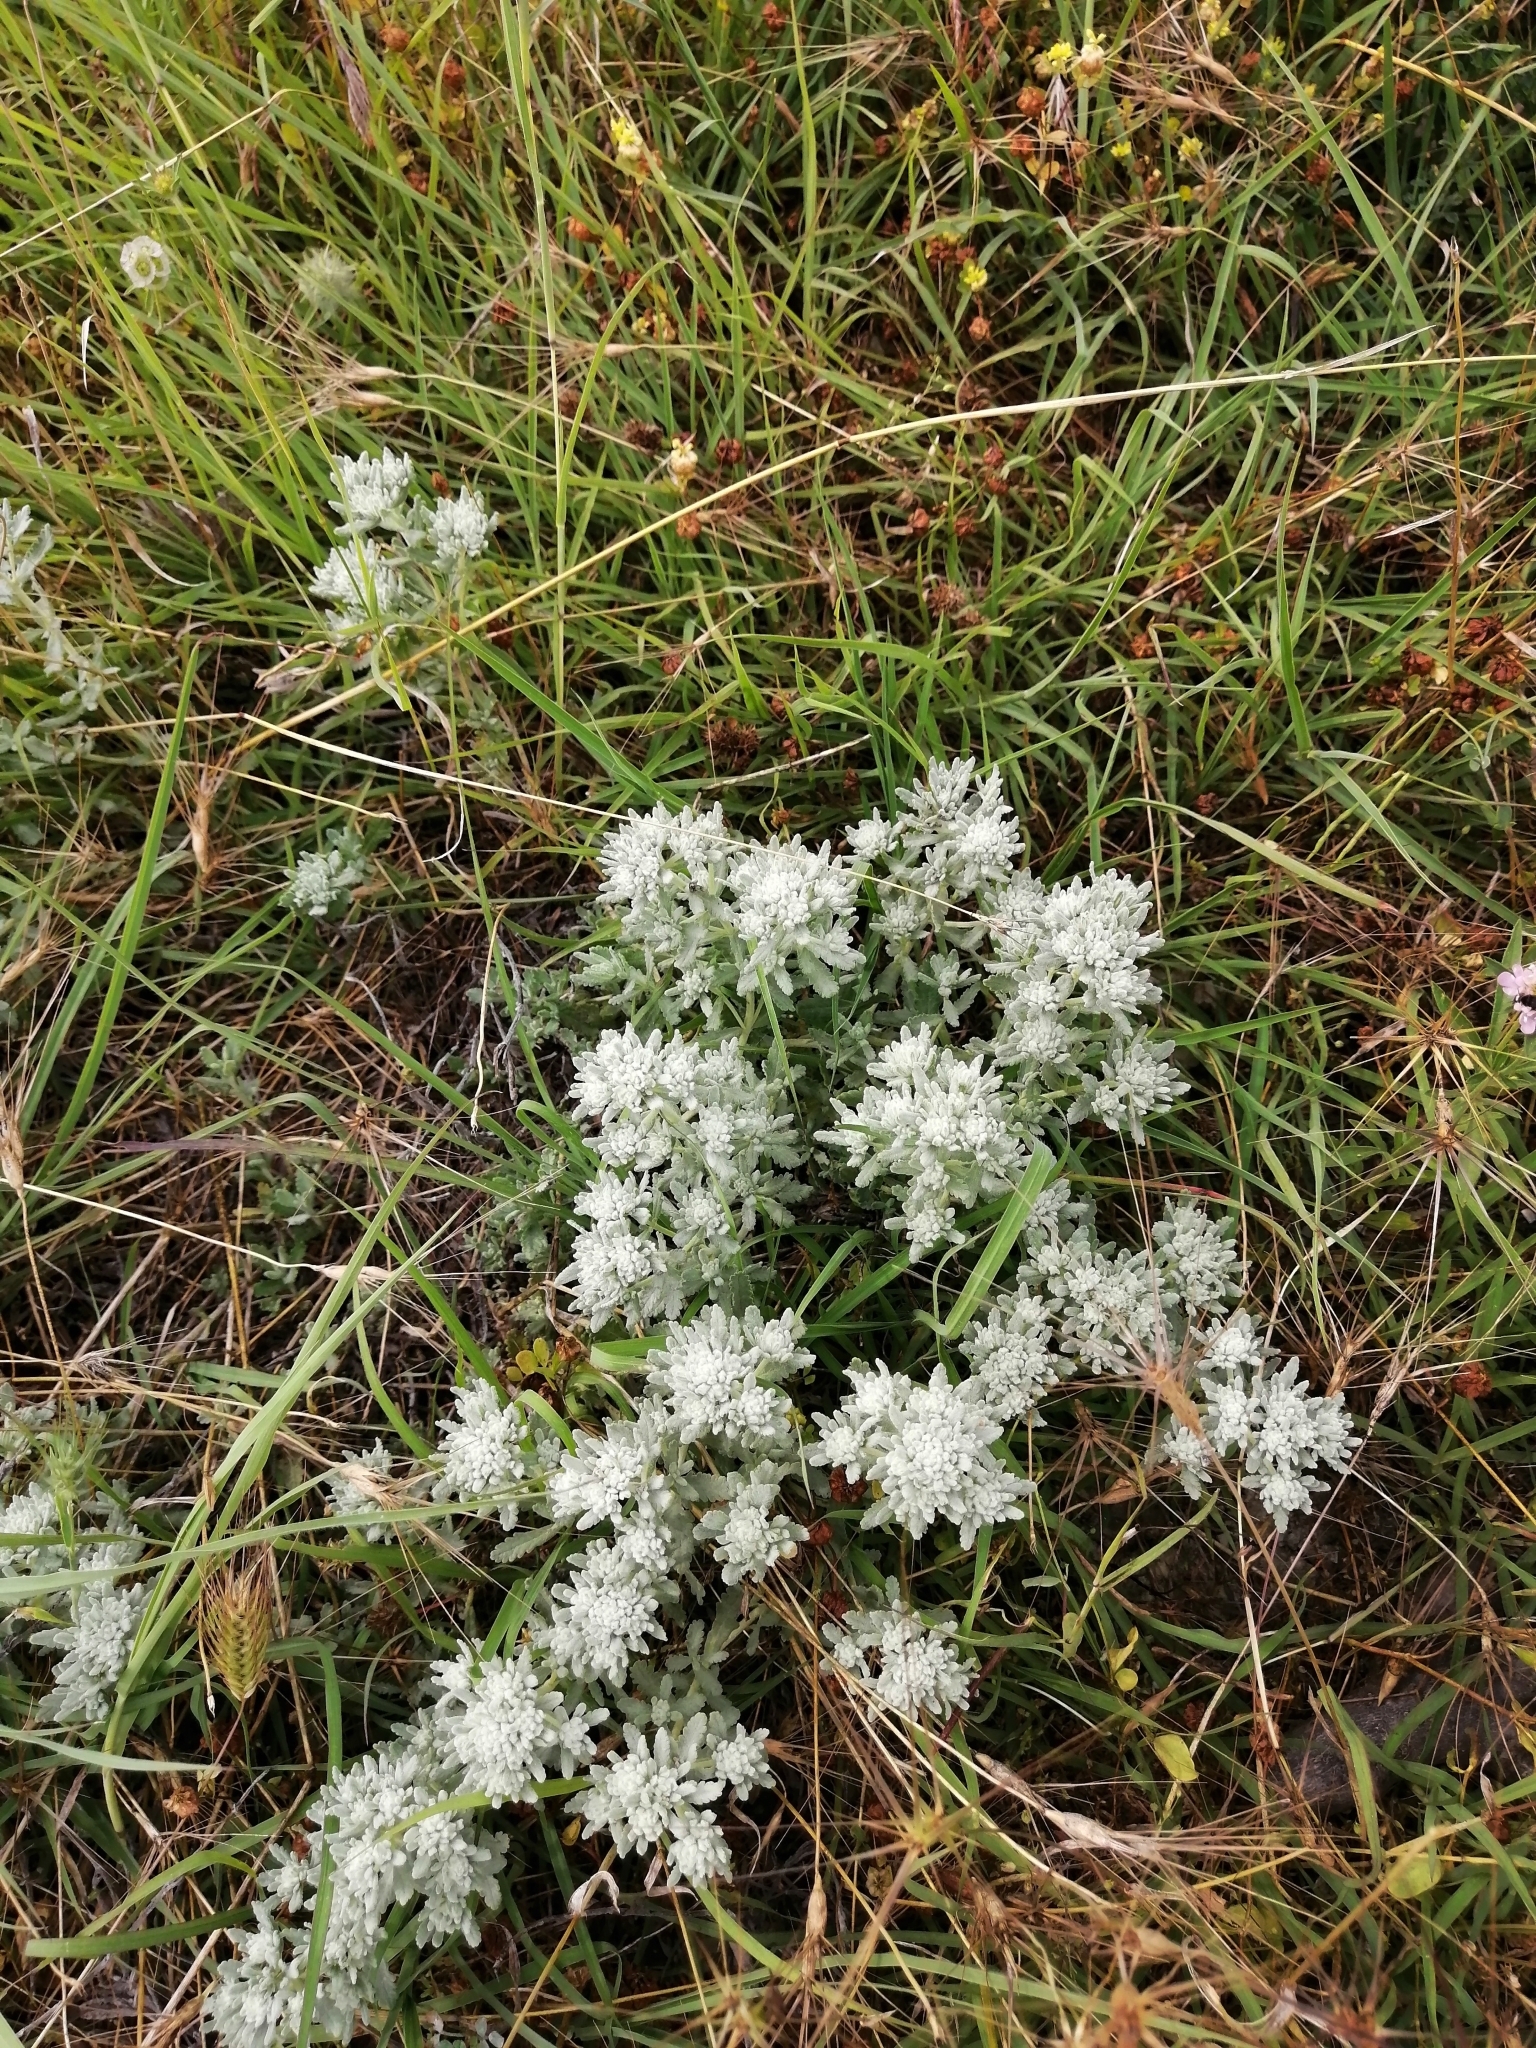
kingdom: Plantae
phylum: Tracheophyta
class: Magnoliopsida
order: Lamiales
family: Lamiaceae
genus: Teucrium
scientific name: Teucrium polium
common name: Poley
